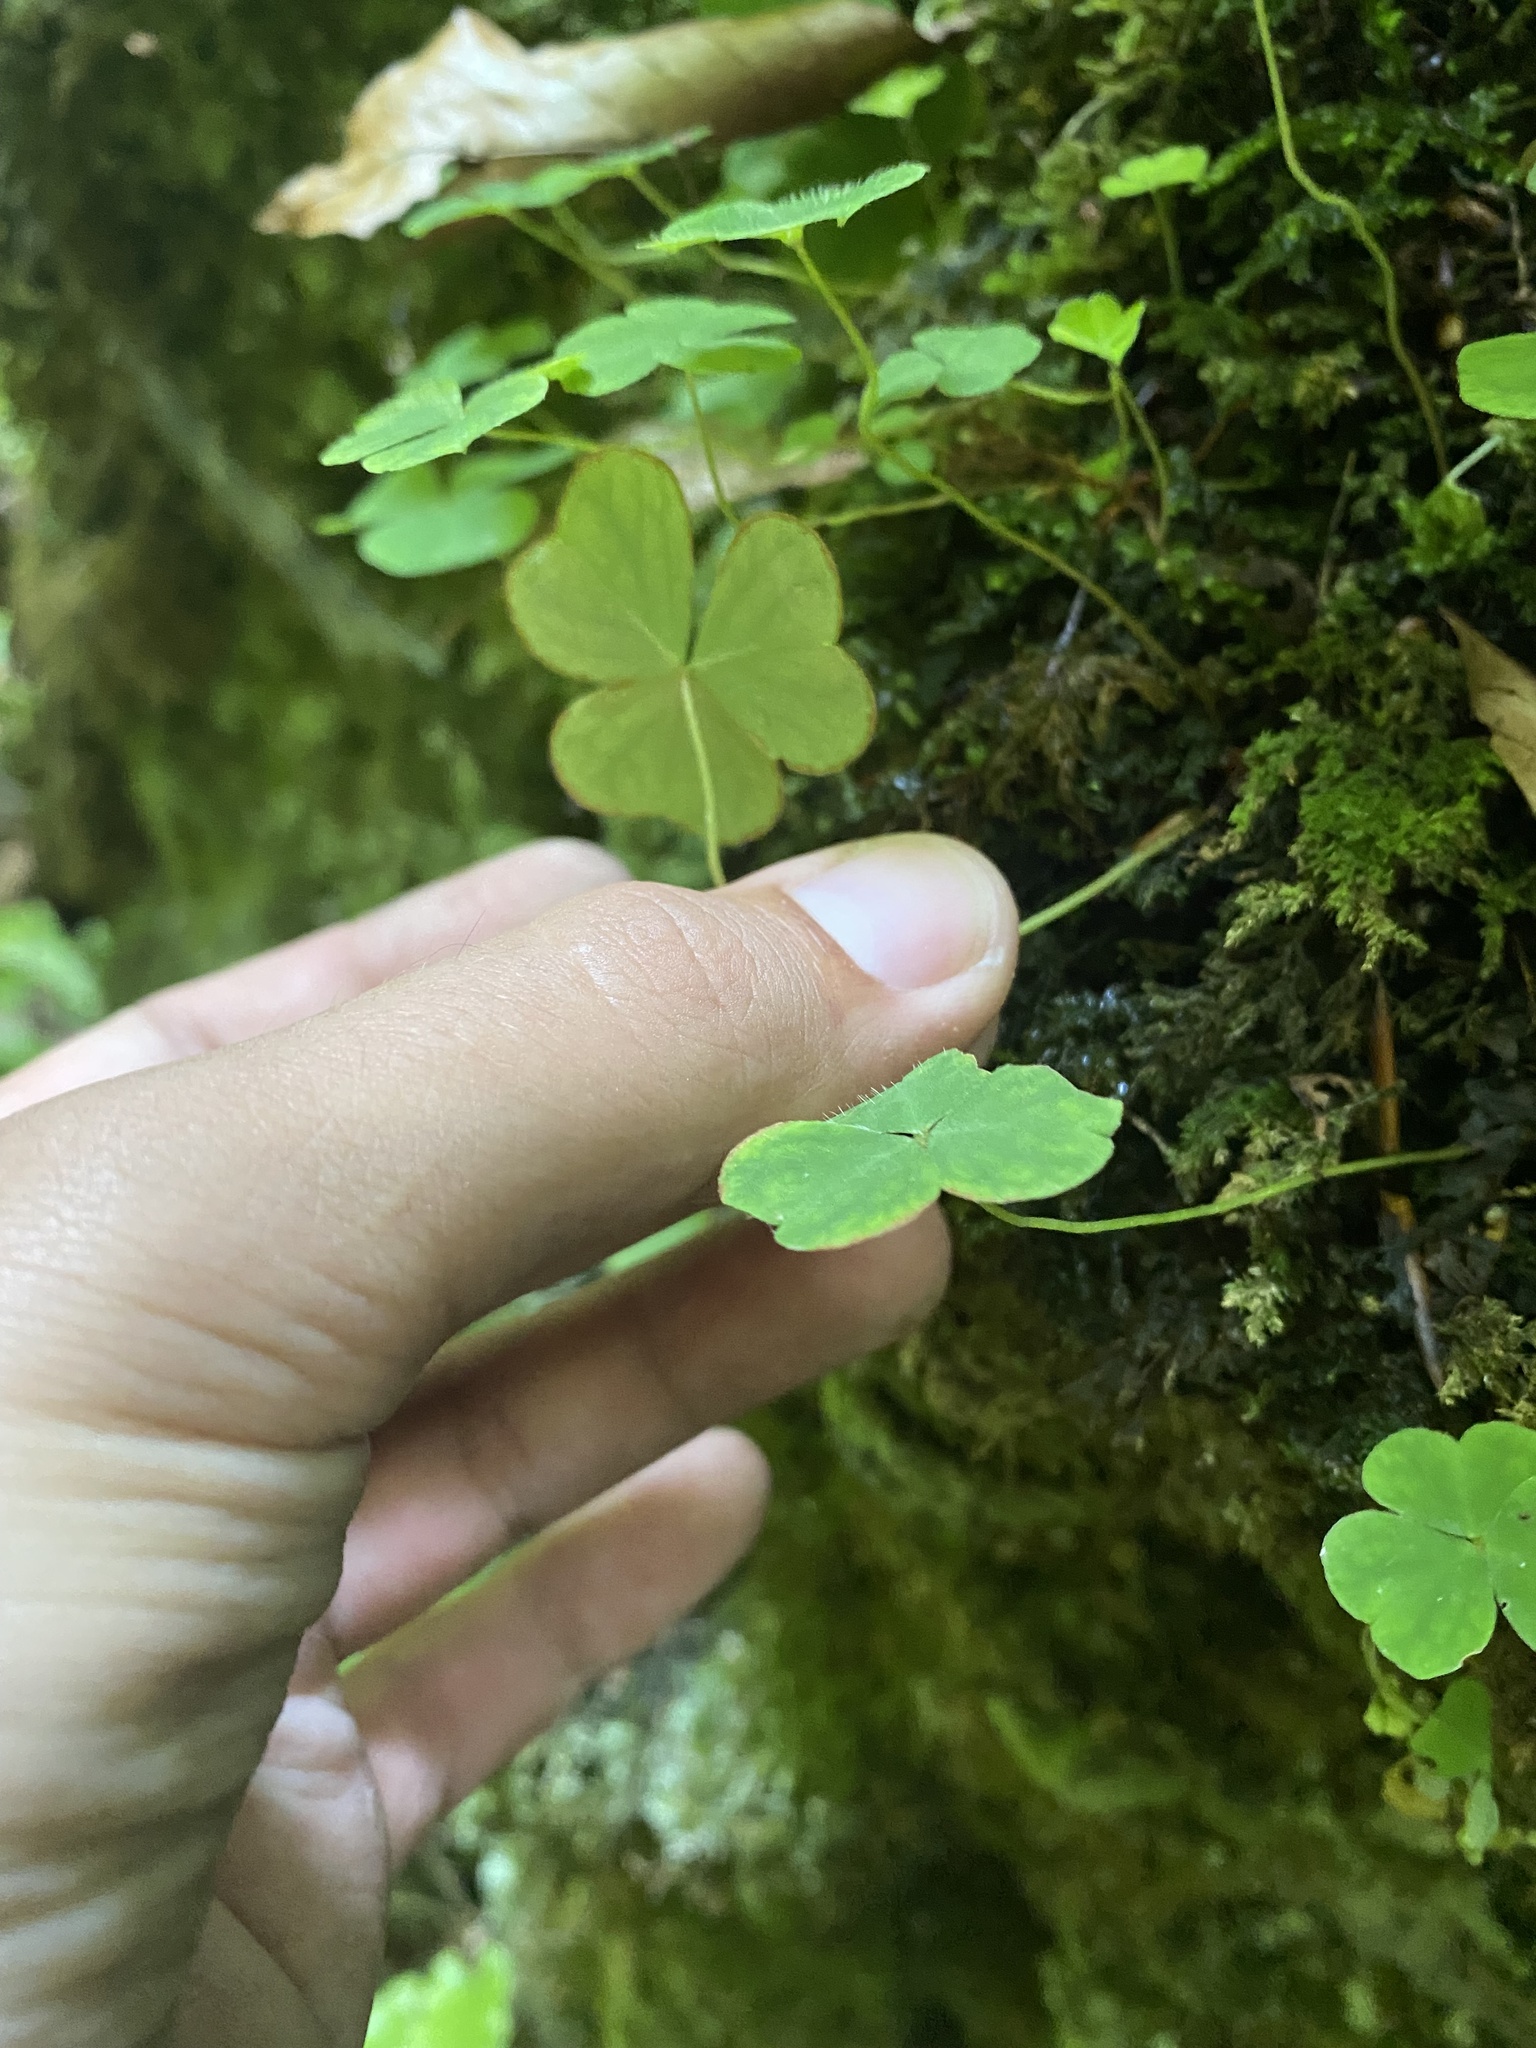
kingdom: Plantae
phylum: Tracheophyta
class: Magnoliopsida
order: Oxalidales
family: Oxalidaceae
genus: Oxalis
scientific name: Oxalis acetosella
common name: Wood-sorrel
